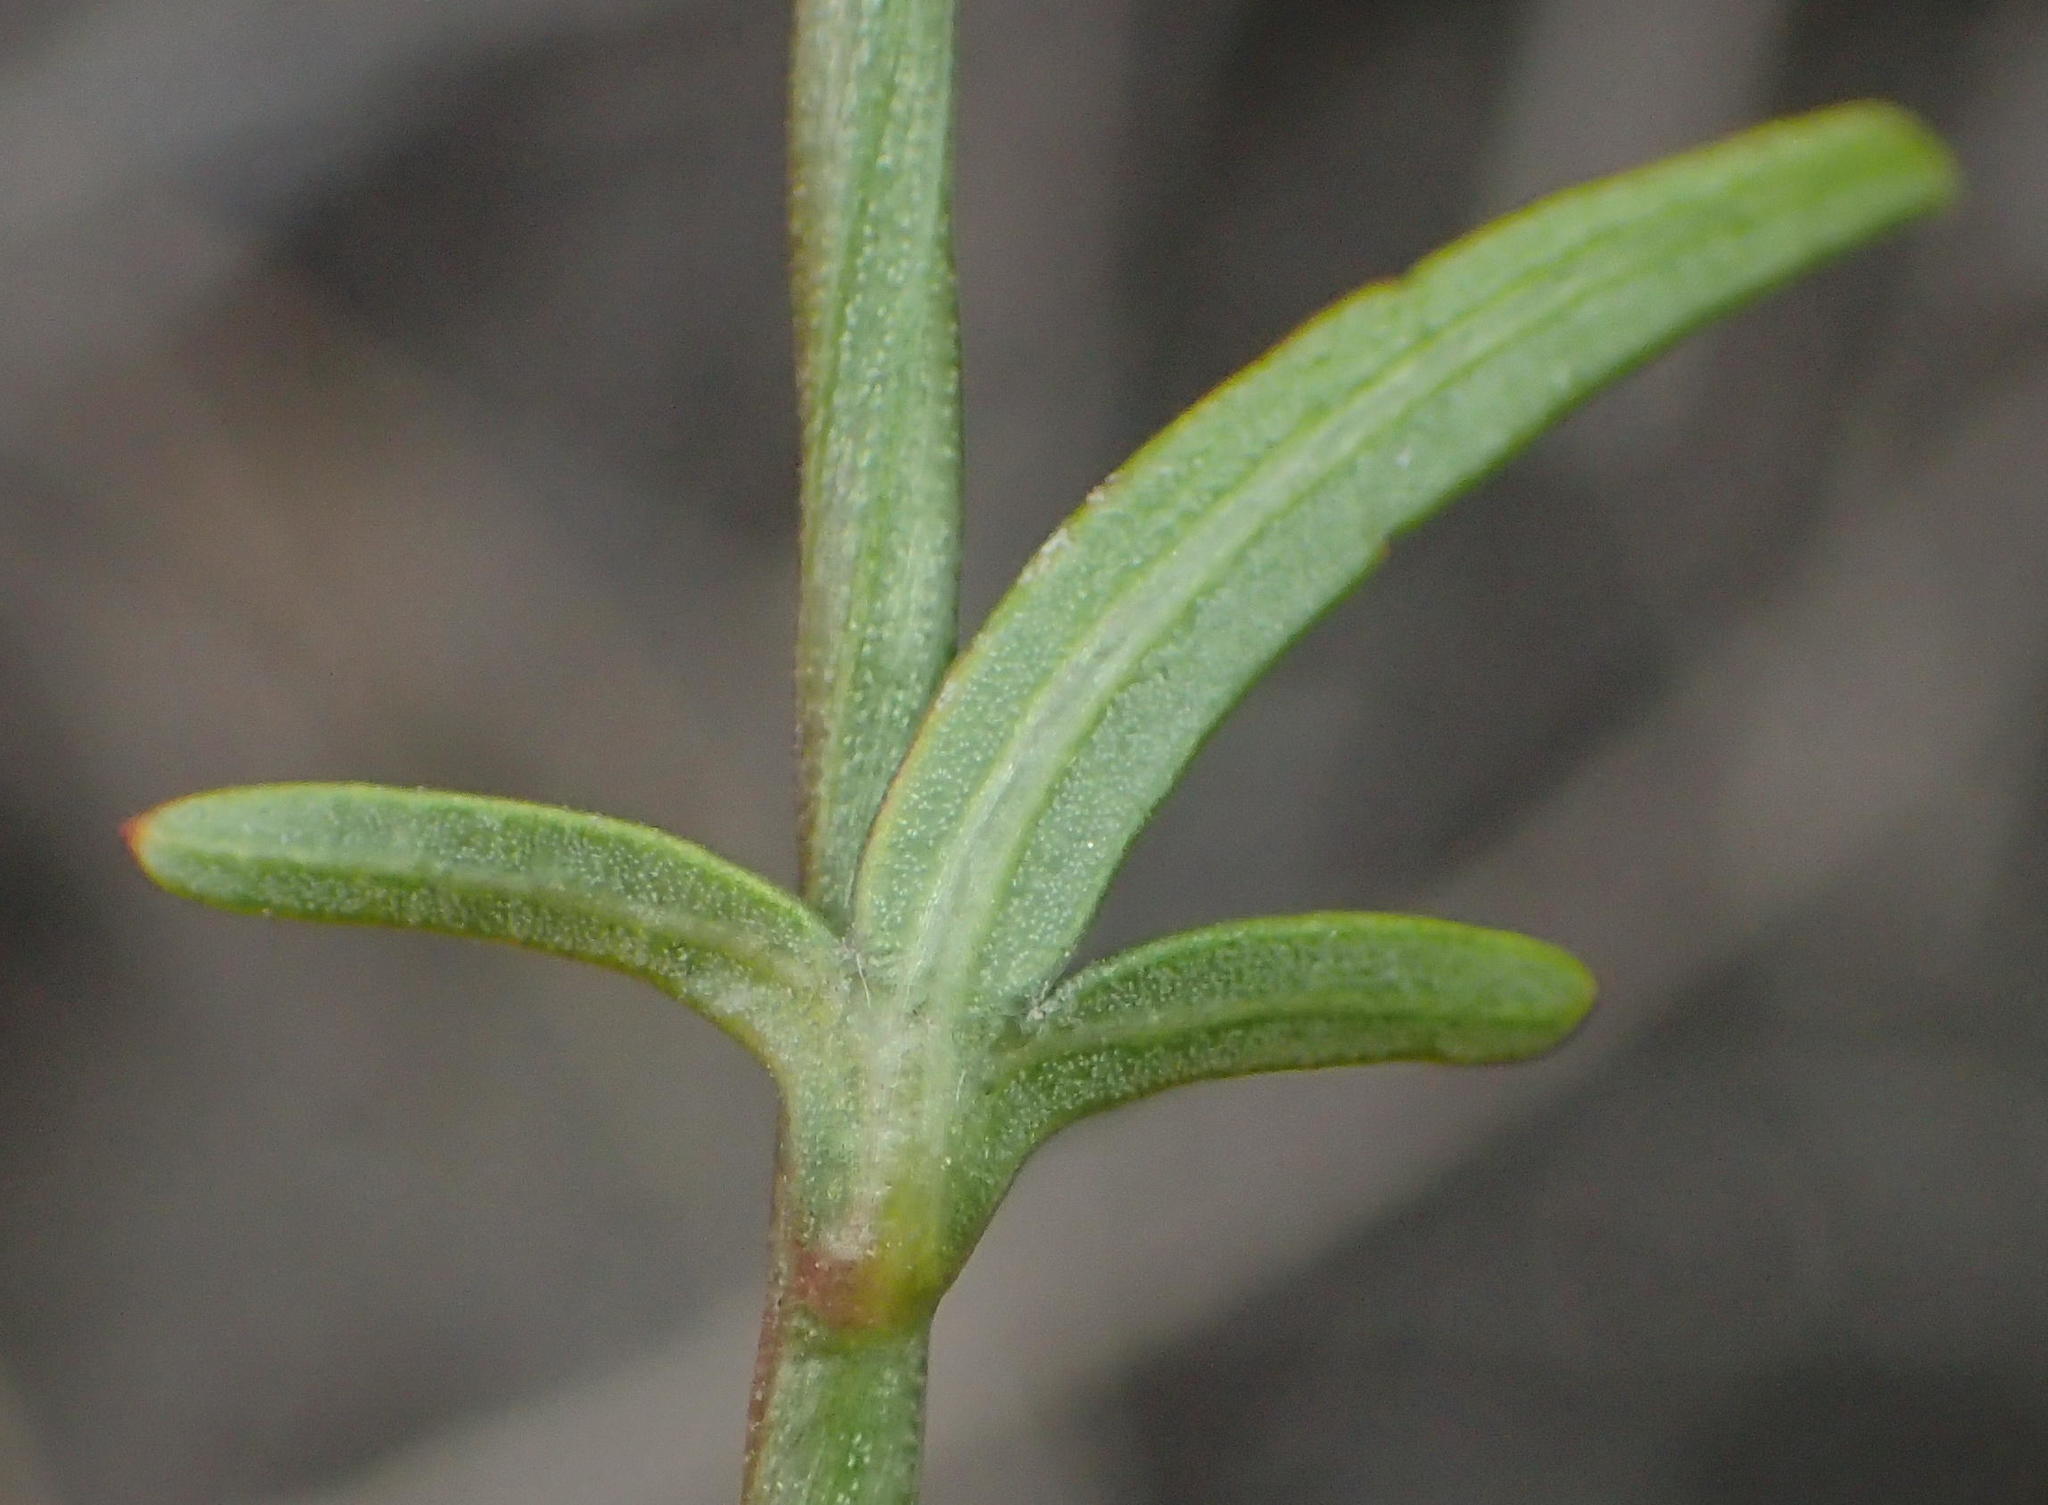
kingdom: Plantae
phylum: Tracheophyta
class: Magnoliopsida
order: Asterales
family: Campanulaceae
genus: Cyphia
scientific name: Cyphia digitata
